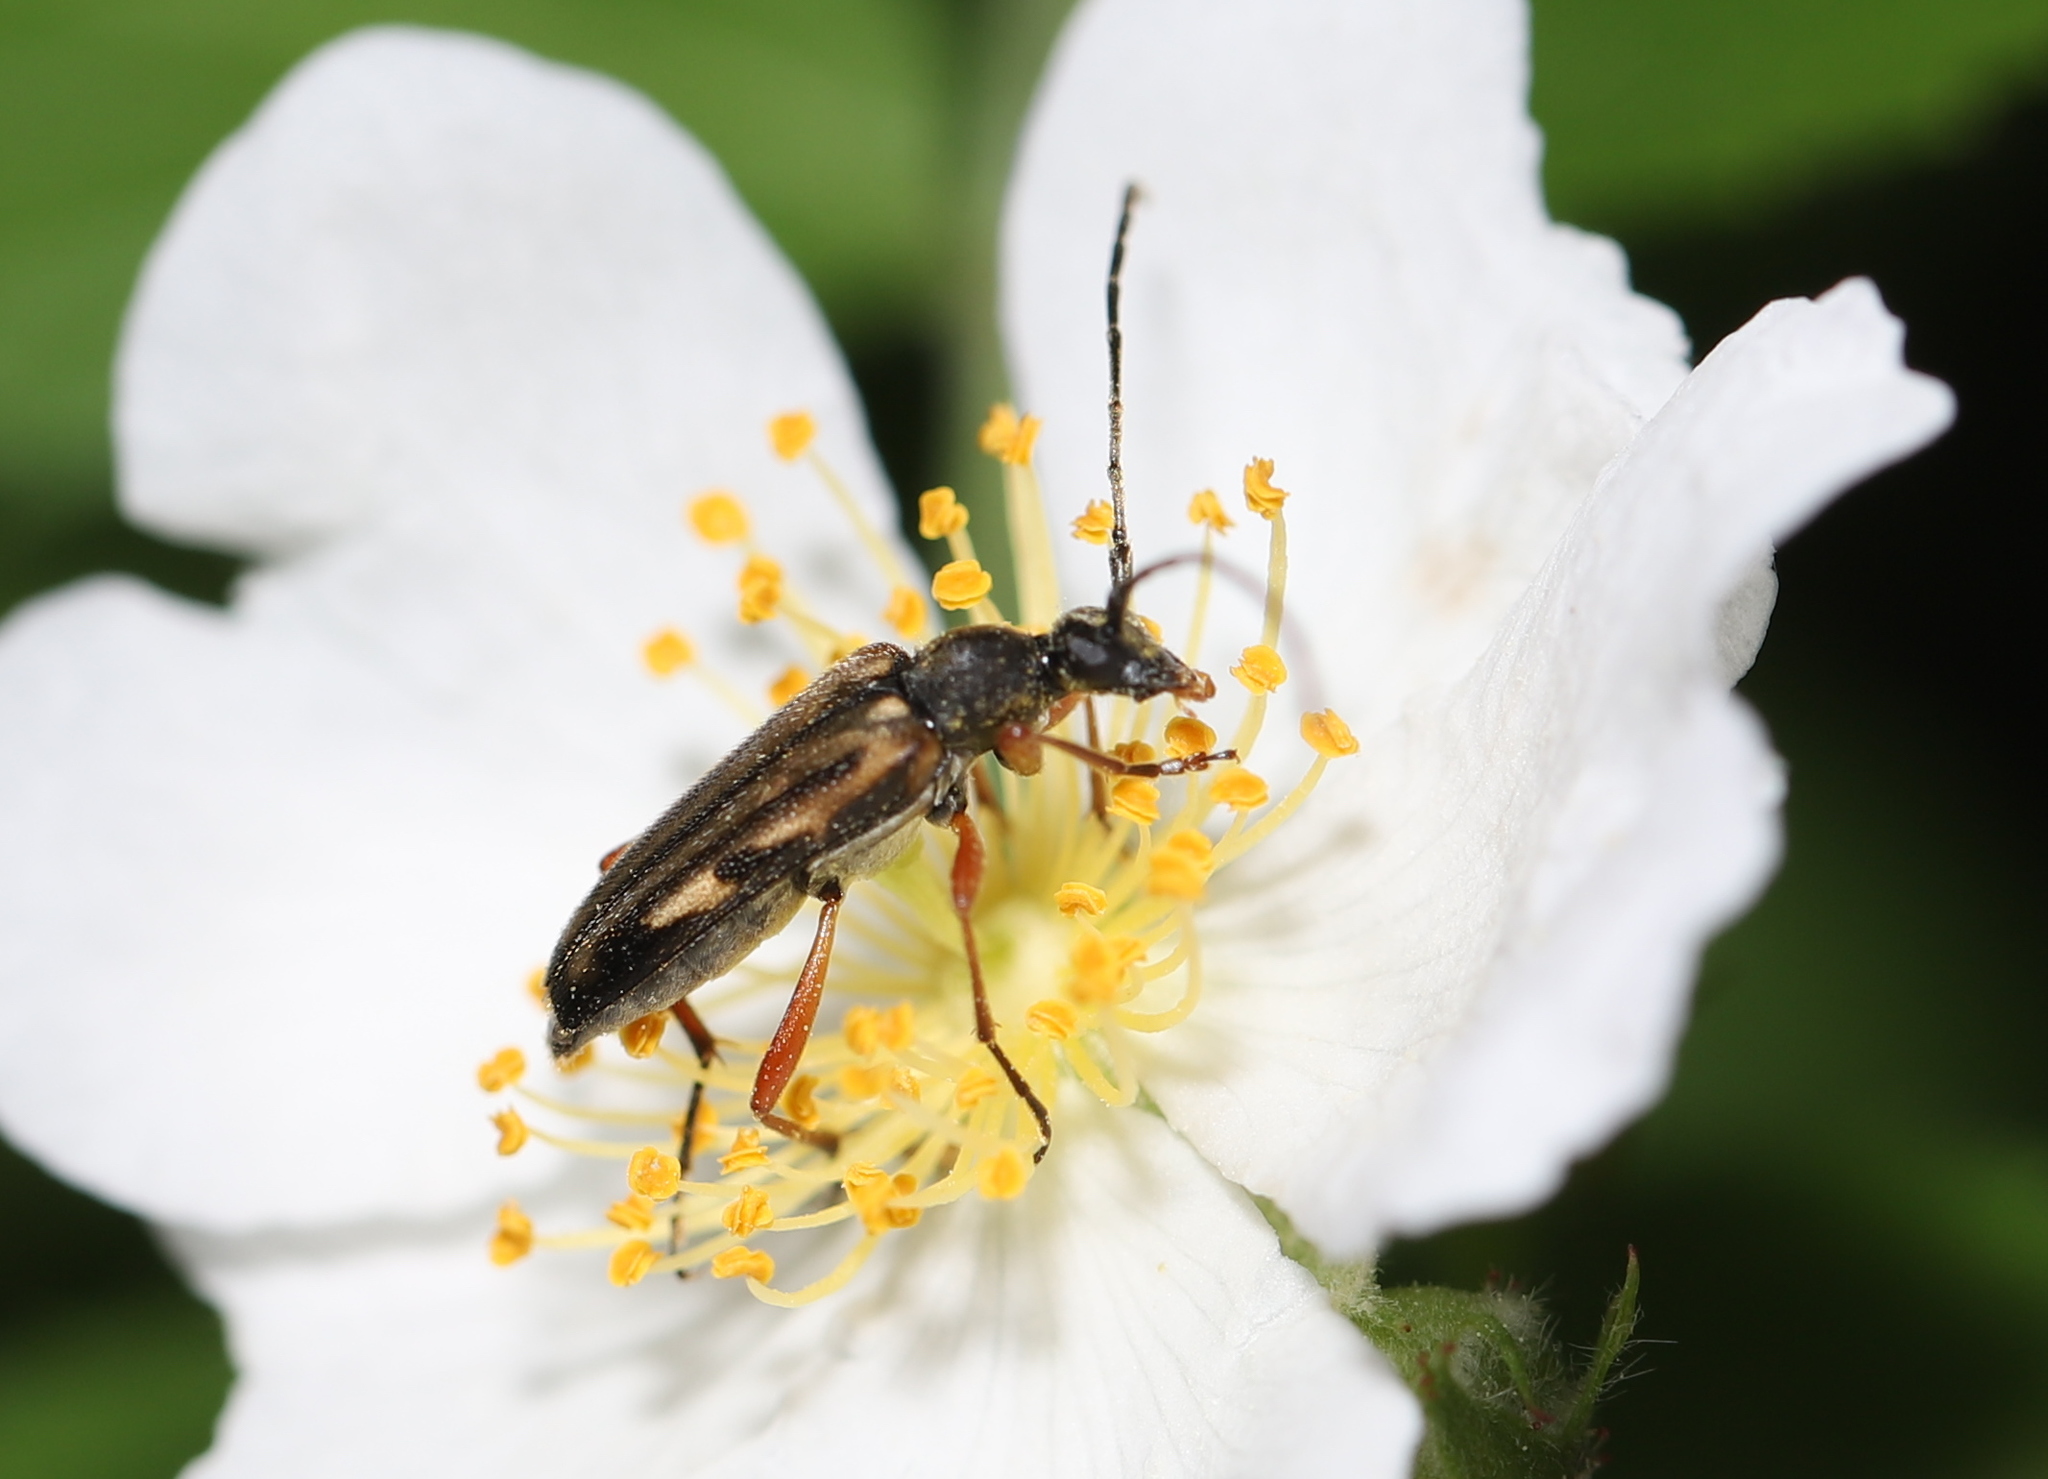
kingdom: Animalia
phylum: Arthropoda
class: Insecta
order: Coleoptera
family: Cerambycidae
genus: Analeptura
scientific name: Analeptura lineola
